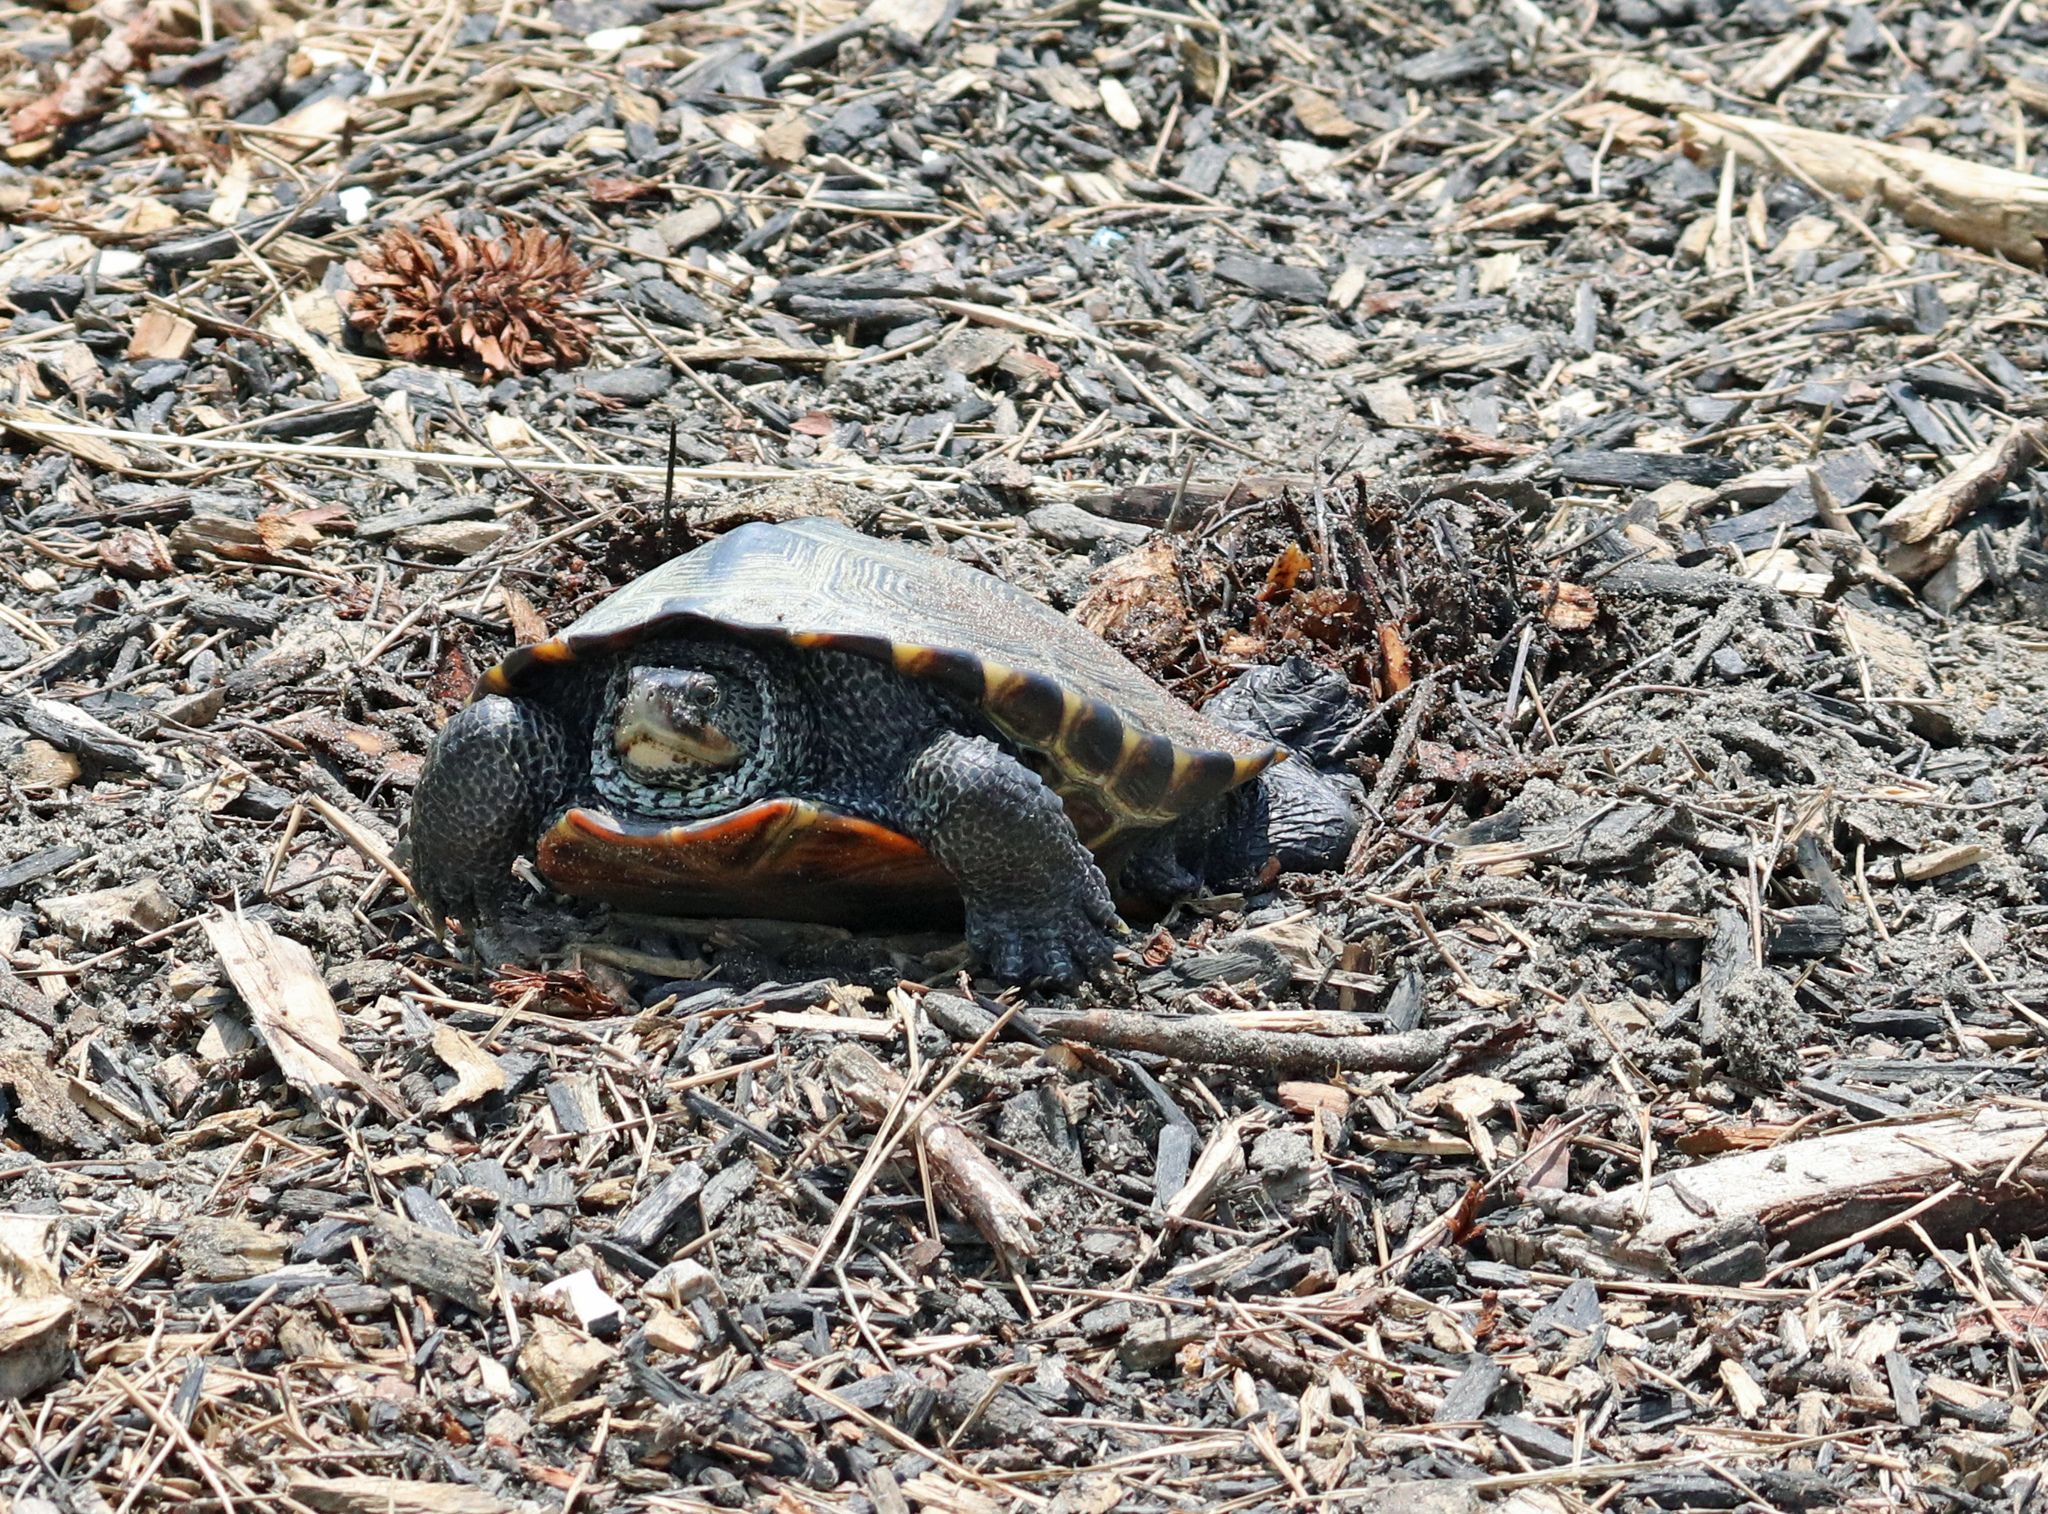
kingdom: Animalia
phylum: Chordata
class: Testudines
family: Emydidae
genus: Malaclemys
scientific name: Malaclemys terrapin
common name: Diamondback terrapin
